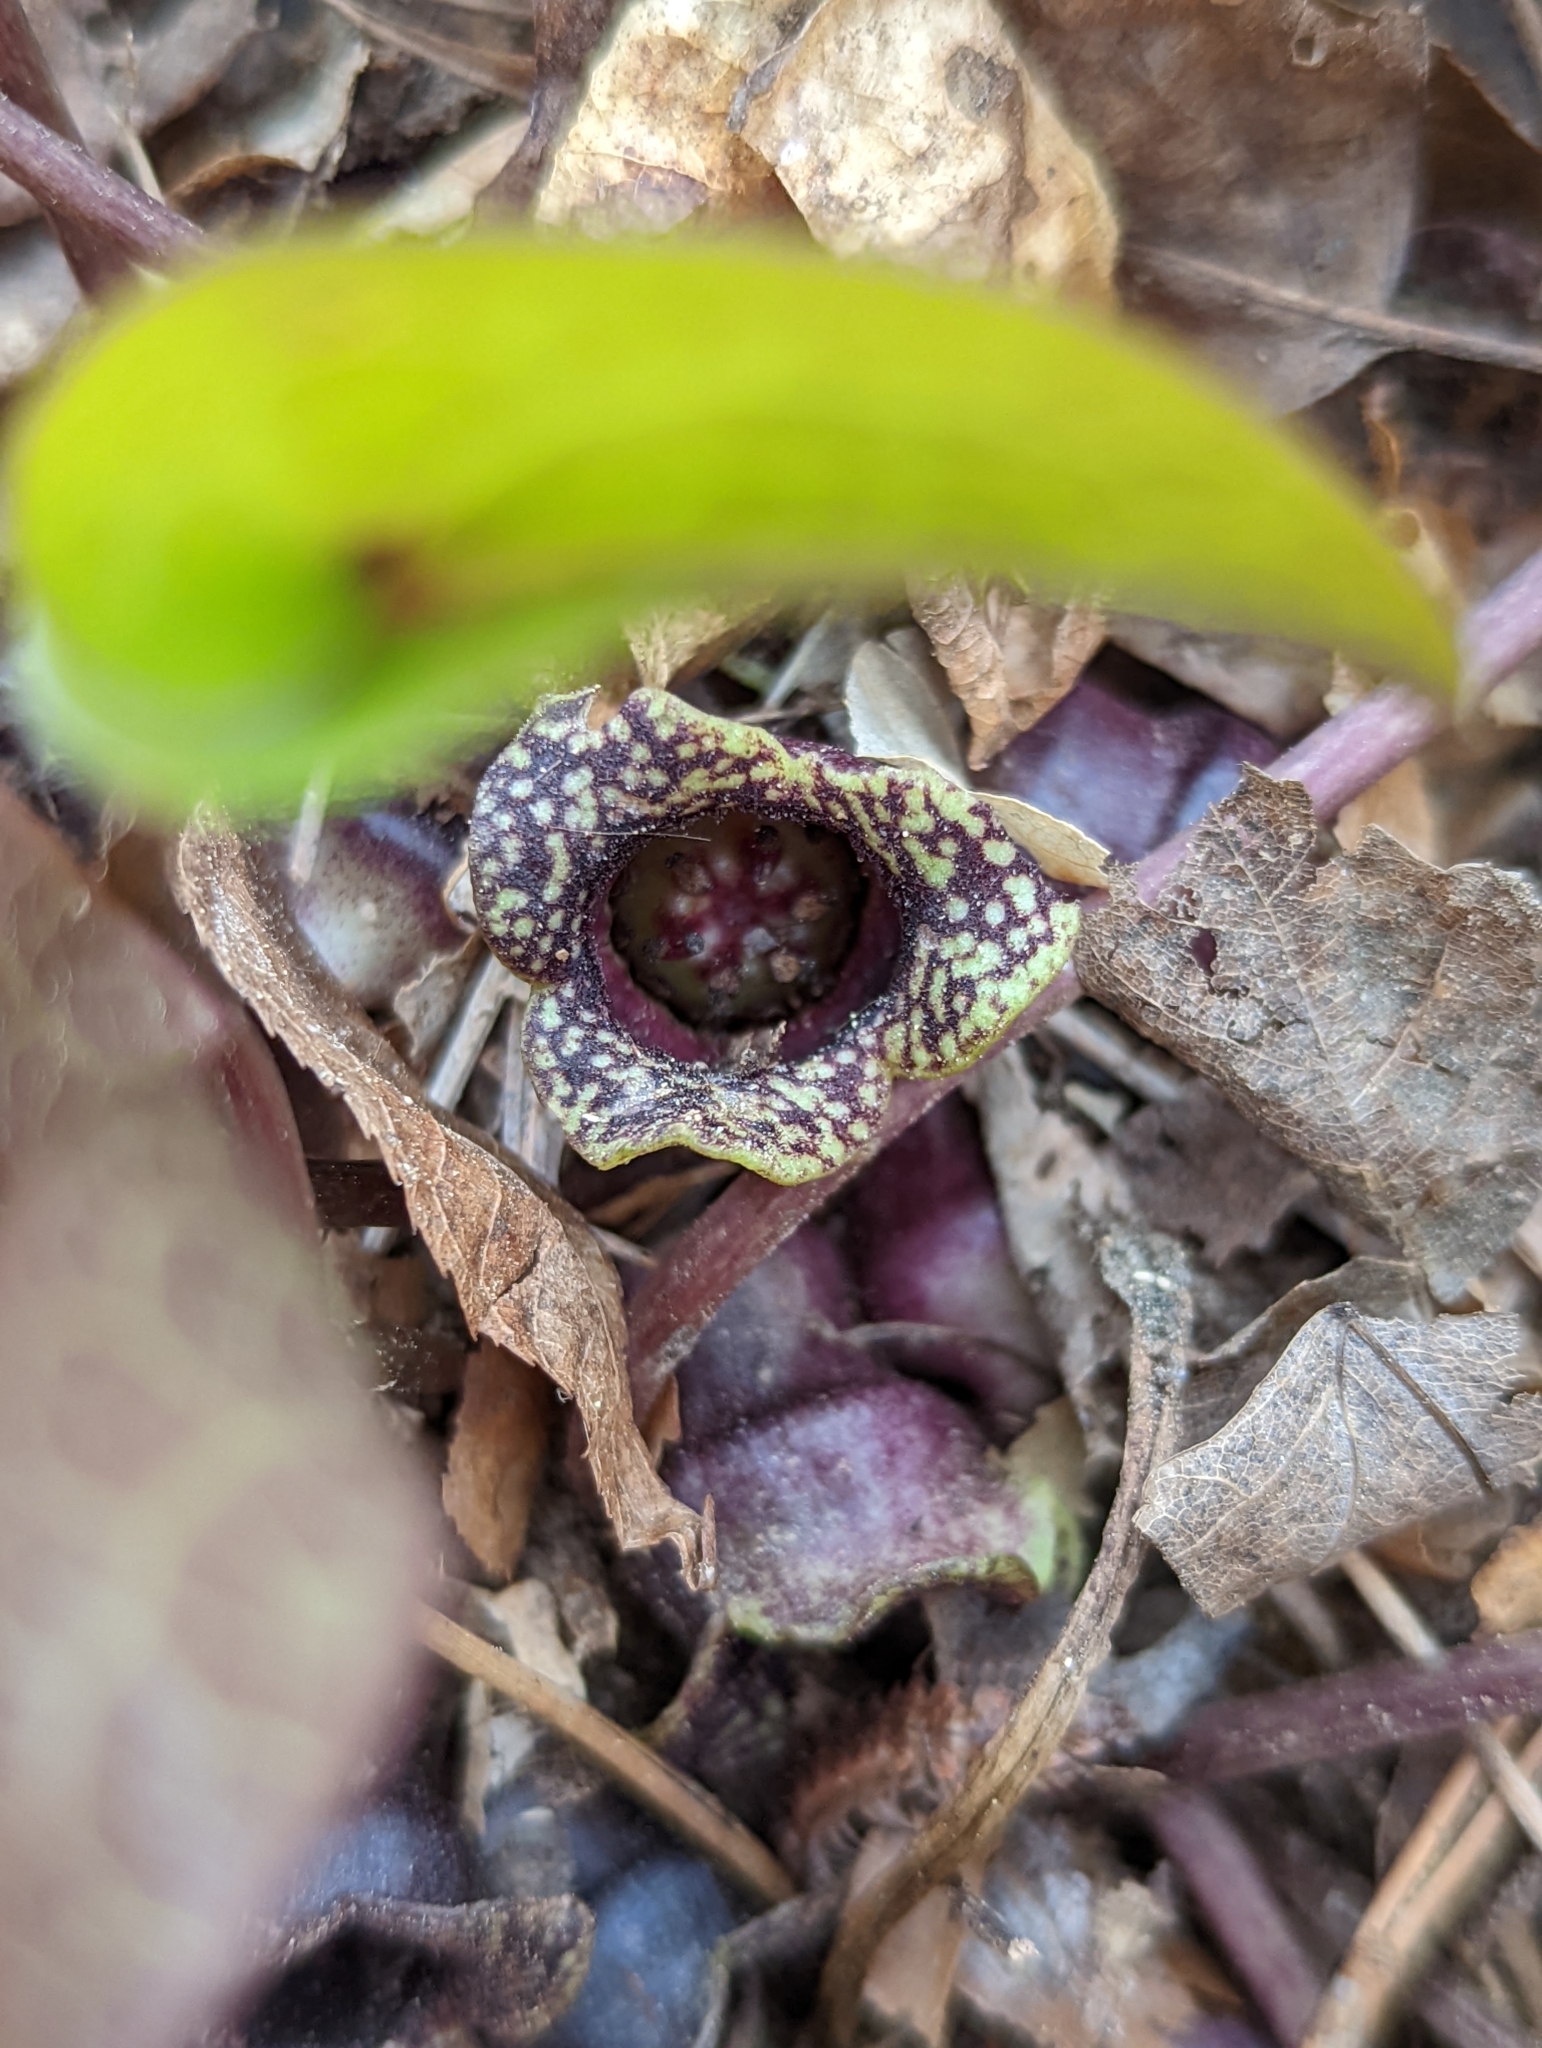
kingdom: Plantae
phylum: Tracheophyta
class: Magnoliopsida
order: Piperales
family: Aristolochiaceae
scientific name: Aristolochiaceae
